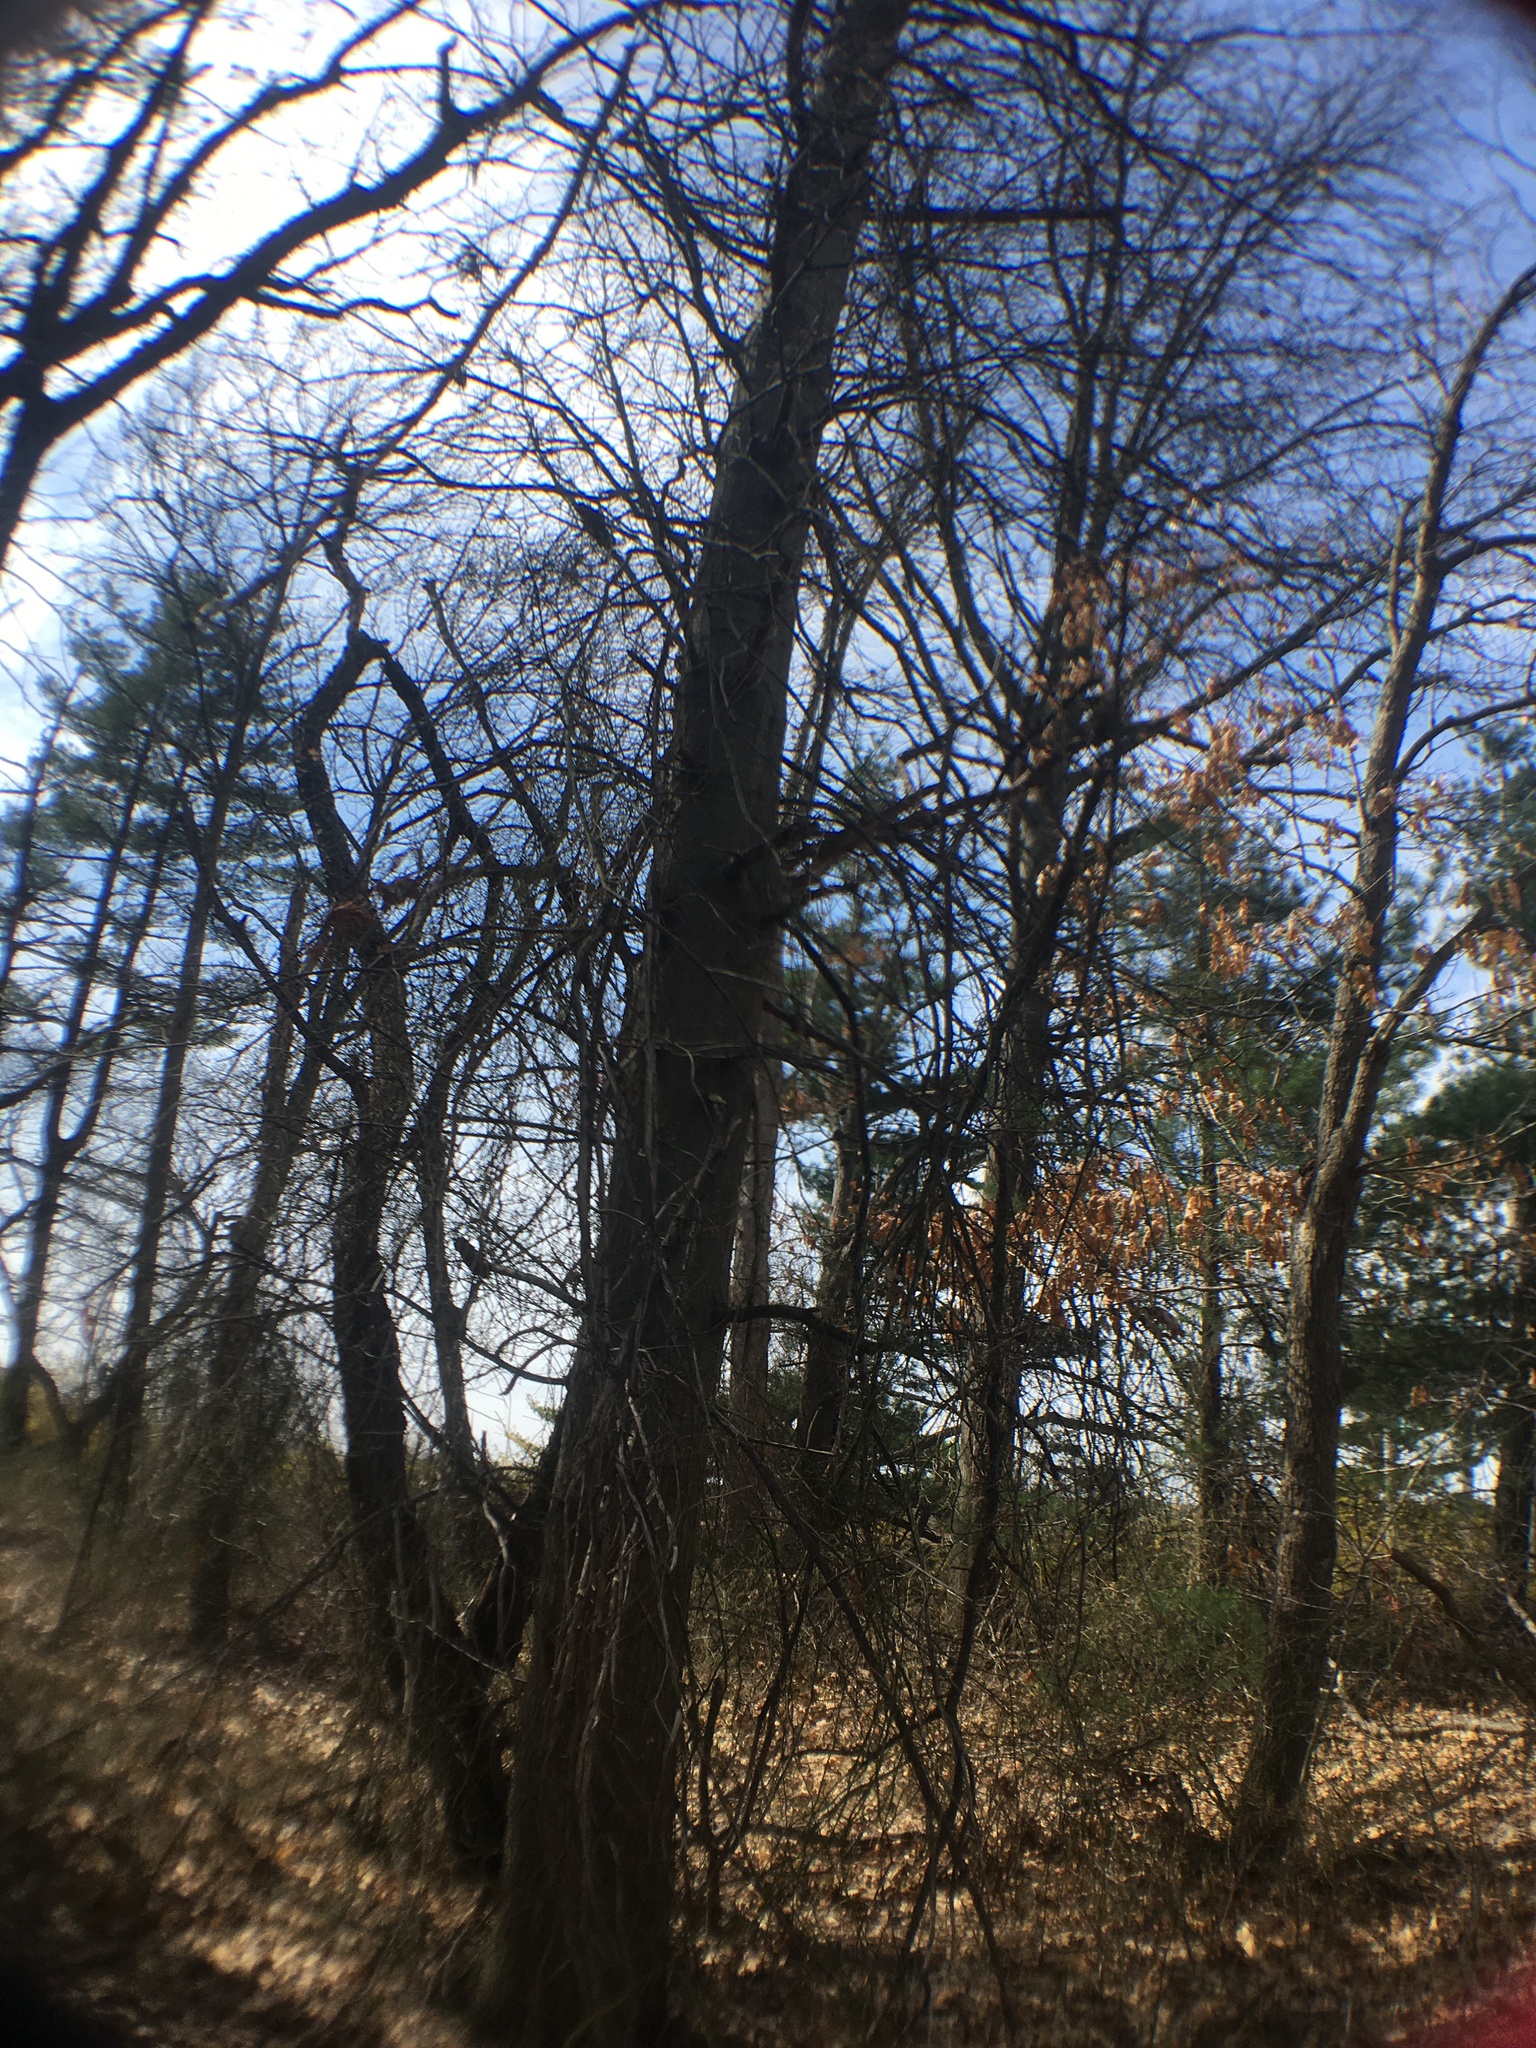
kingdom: Plantae
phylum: Tracheophyta
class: Magnoliopsida
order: Fagales
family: Fagaceae
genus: Quercus
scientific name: Quercus palustris
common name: Pin oak
